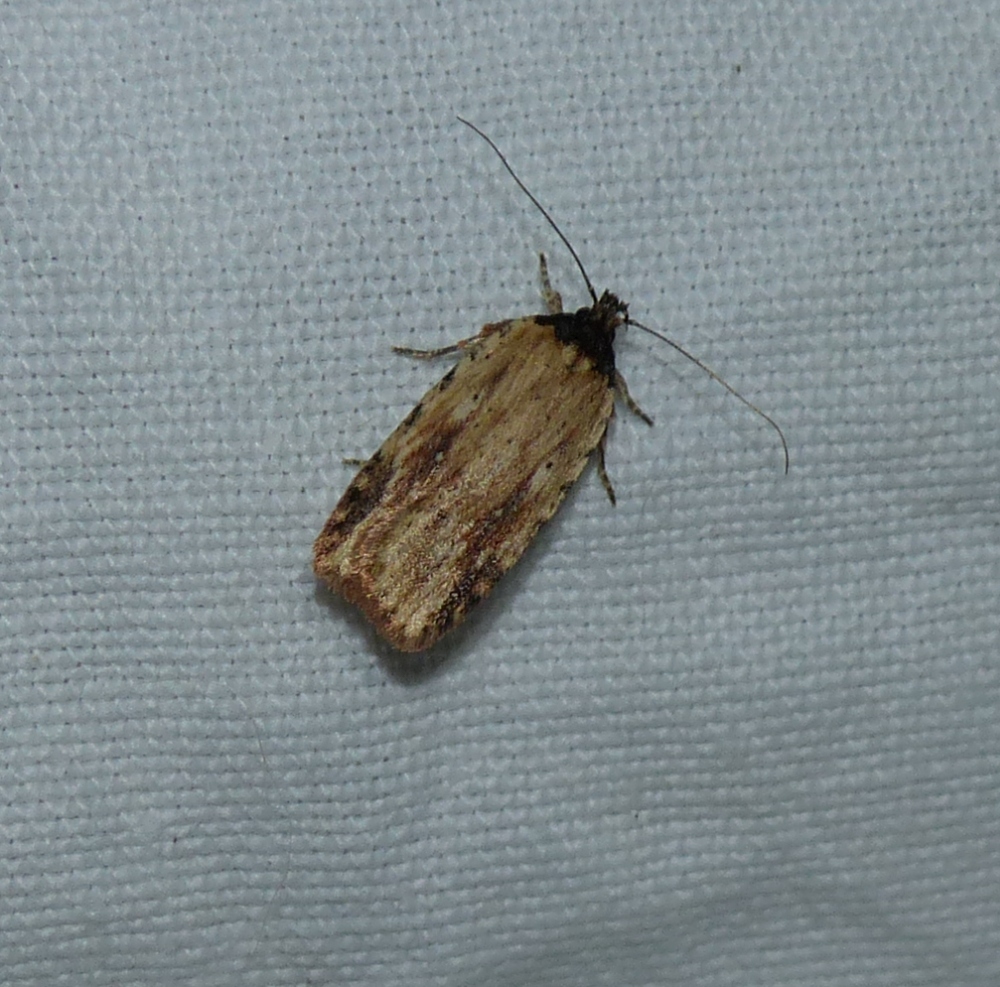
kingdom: Animalia
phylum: Arthropoda
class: Insecta
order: Lepidoptera
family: Depressariidae
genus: Agonopterix
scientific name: Agonopterix atrodorsella
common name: Beggartick leaffolder
